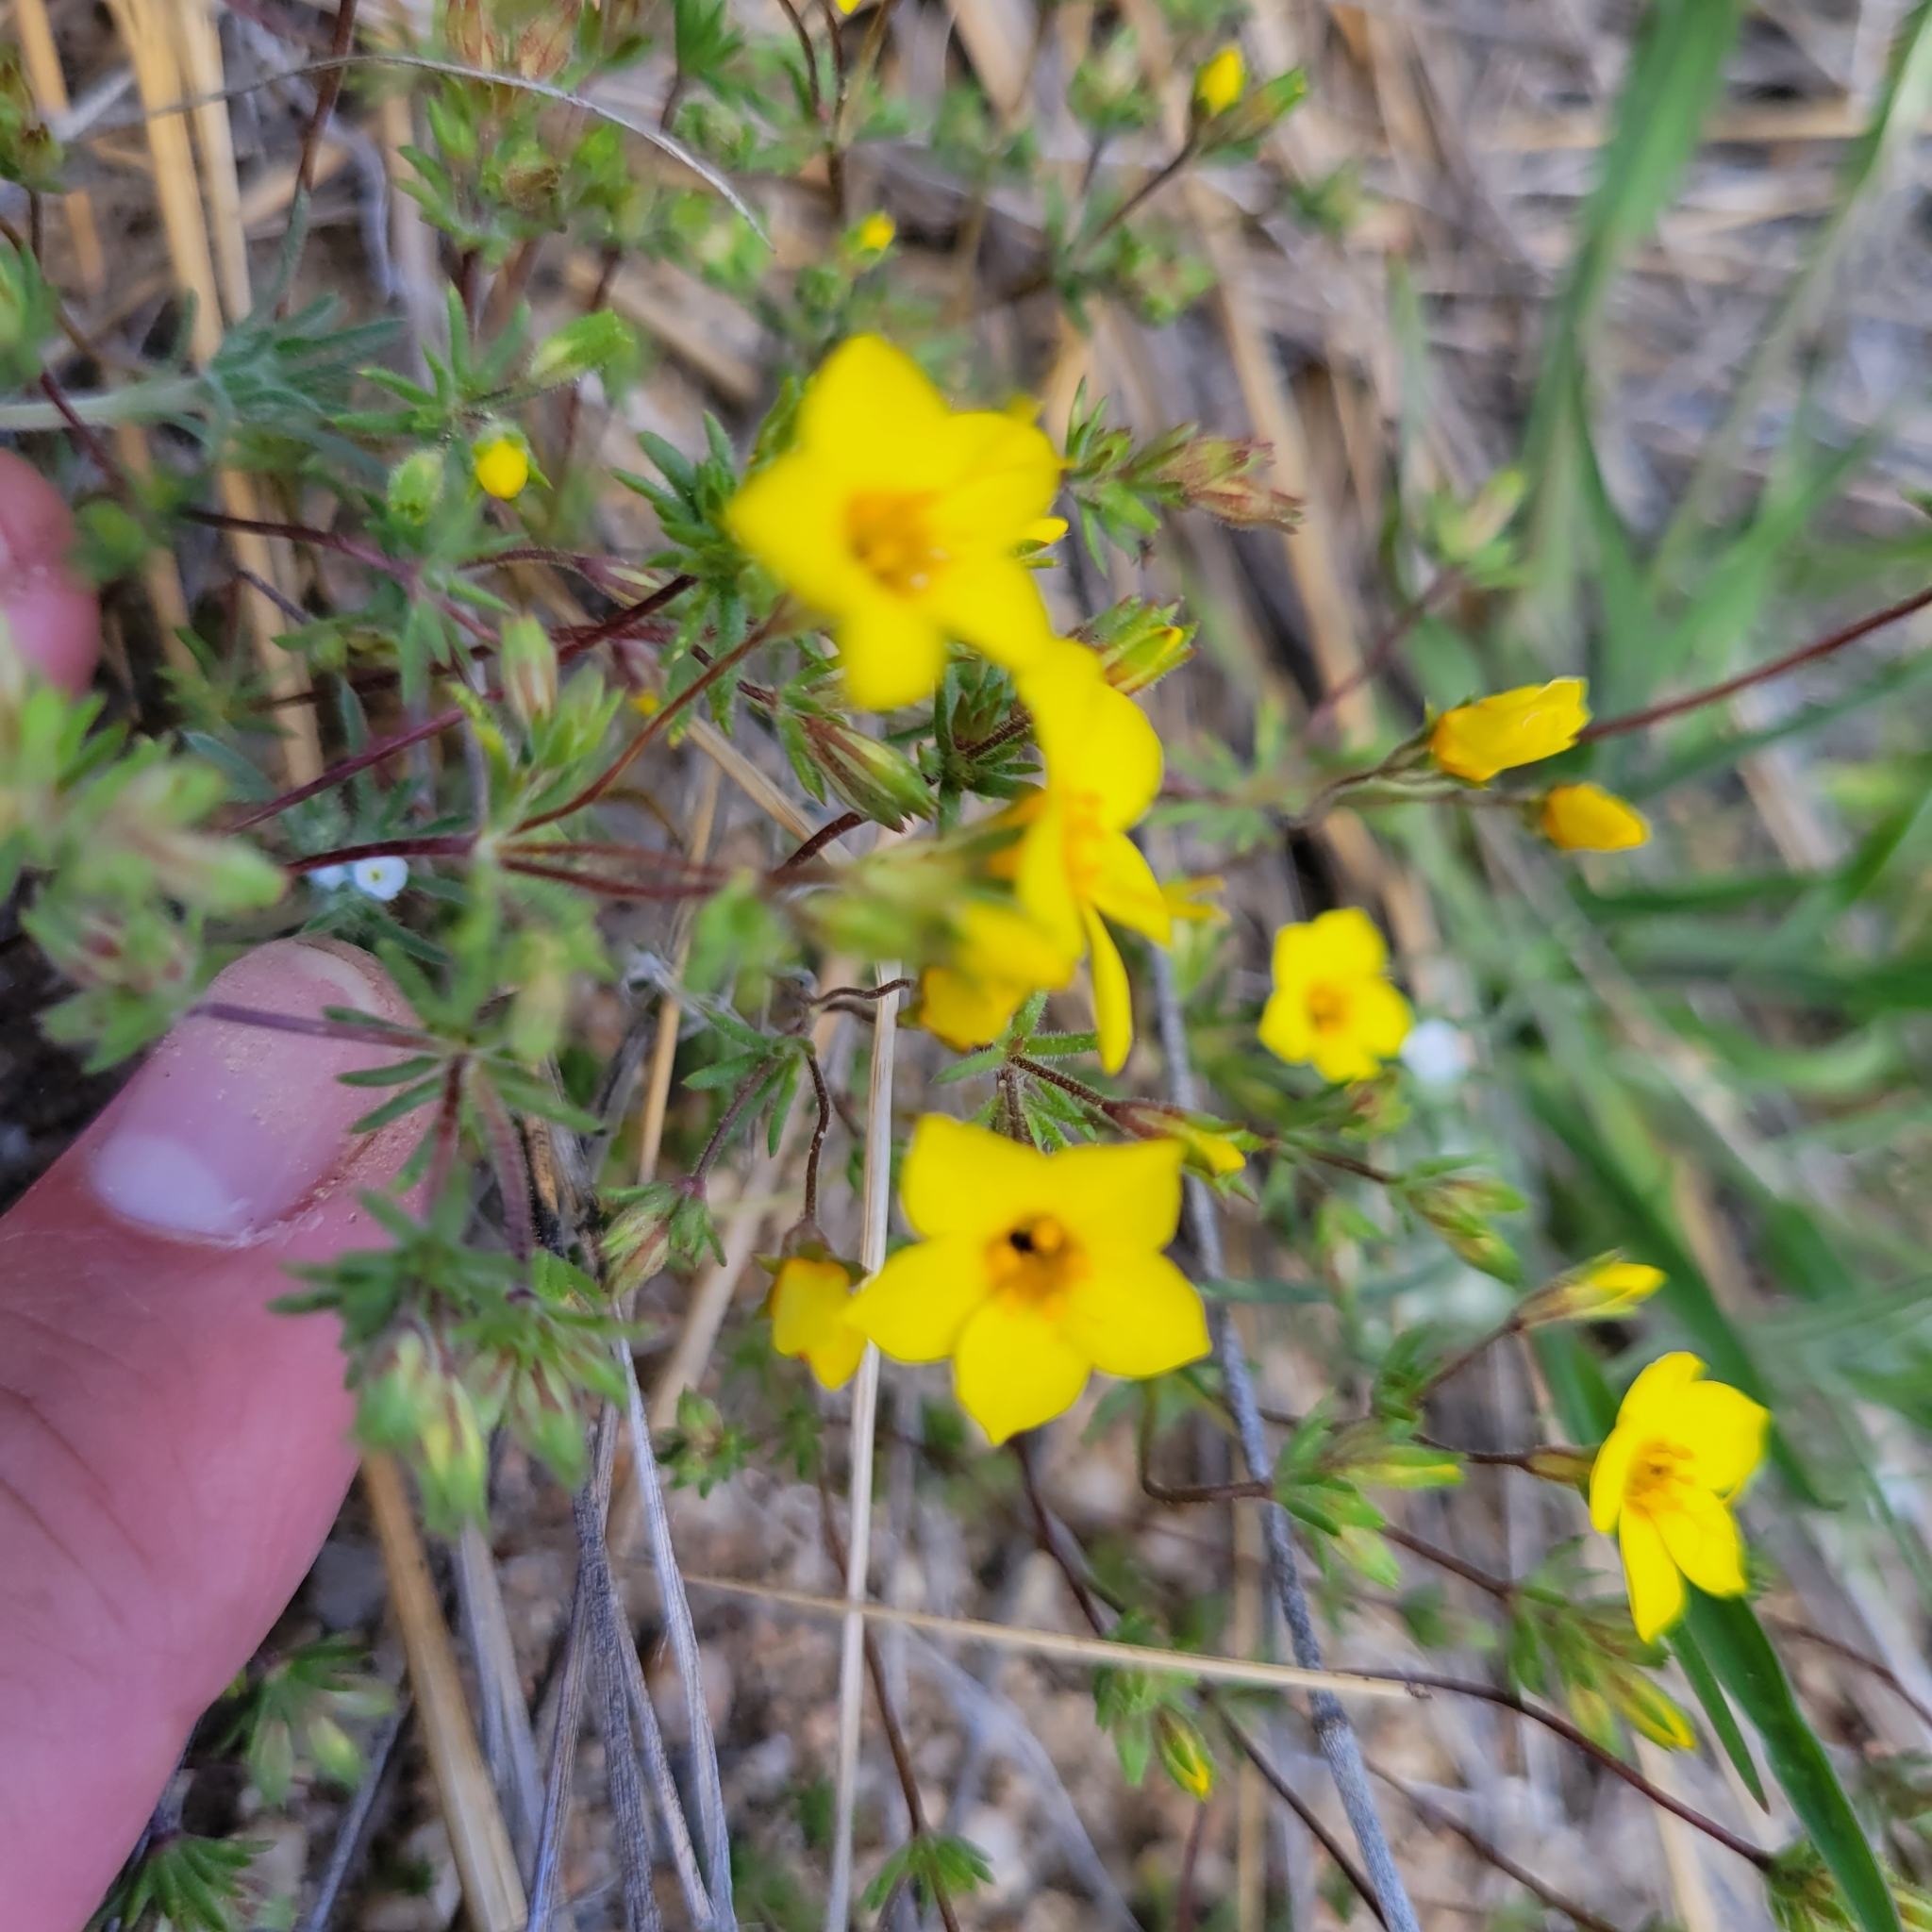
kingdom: Plantae
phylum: Tracheophyta
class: Magnoliopsida
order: Ericales
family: Polemoniaceae
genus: Leptosiphon
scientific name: Leptosiphon chrysanthus
